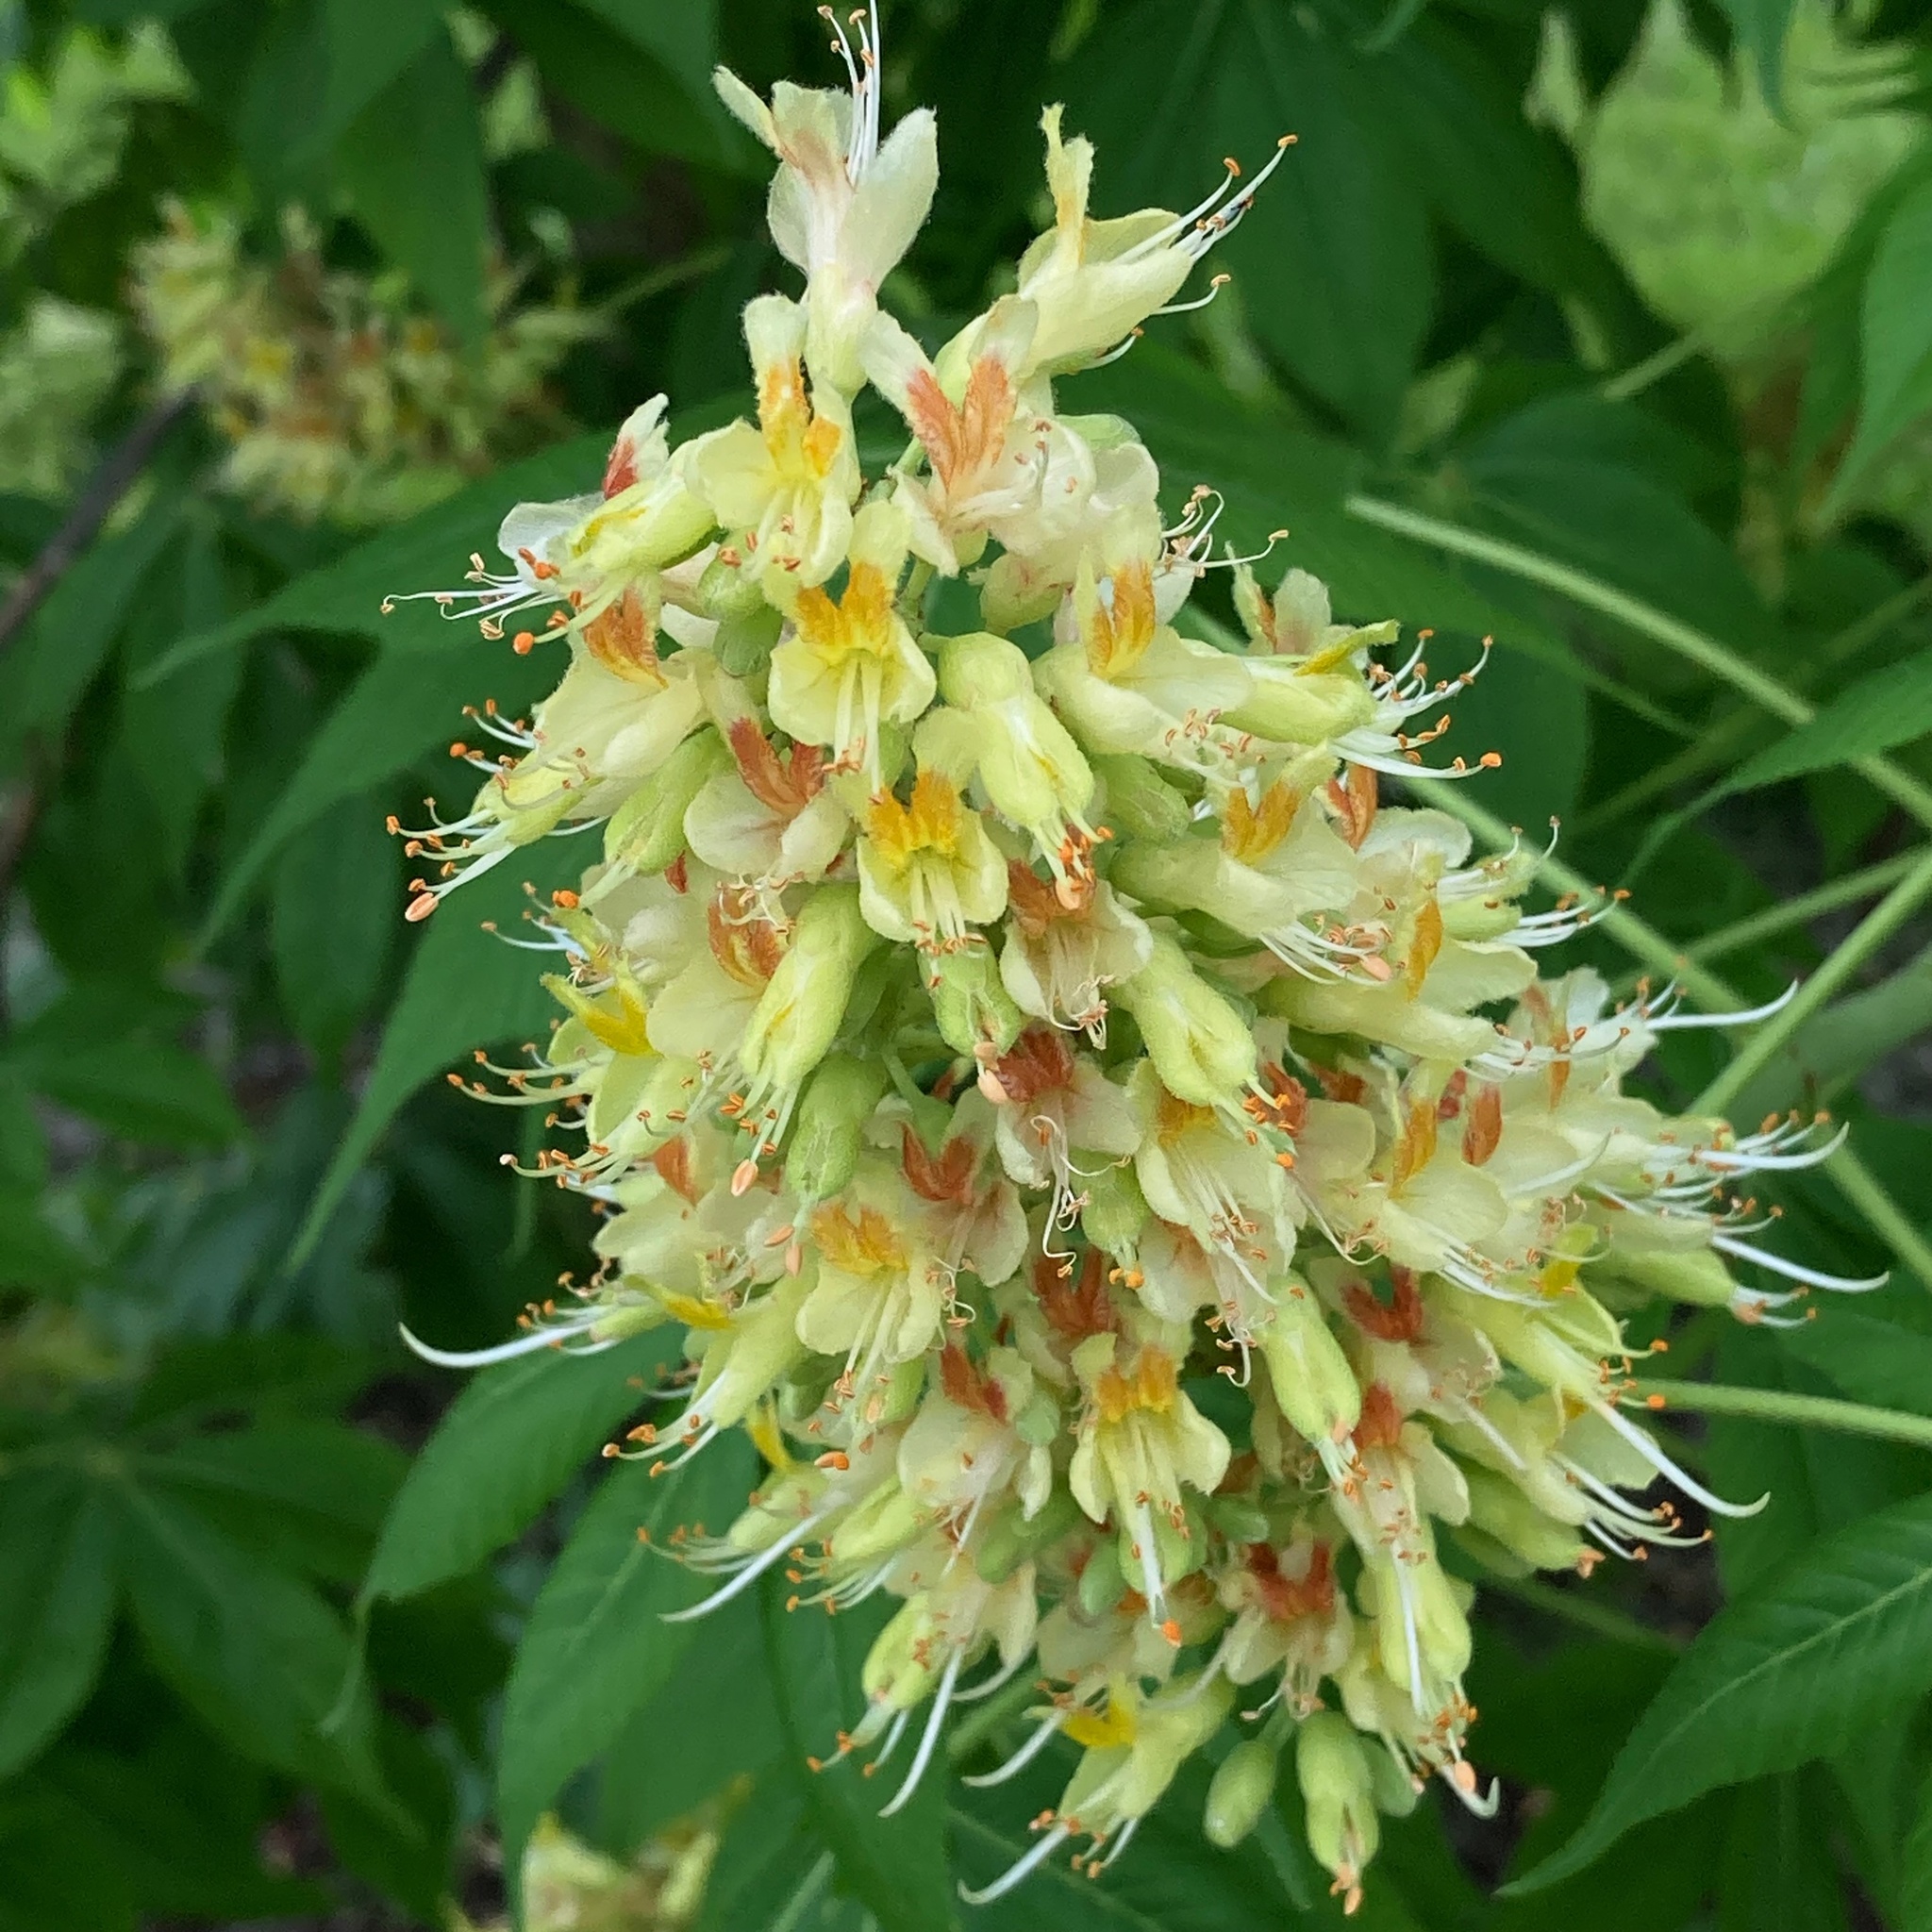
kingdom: Plantae
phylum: Tracheophyta
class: Magnoliopsida
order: Sapindales
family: Sapindaceae
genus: Aesculus
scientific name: Aesculus glabra
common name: Ohio buckeye
